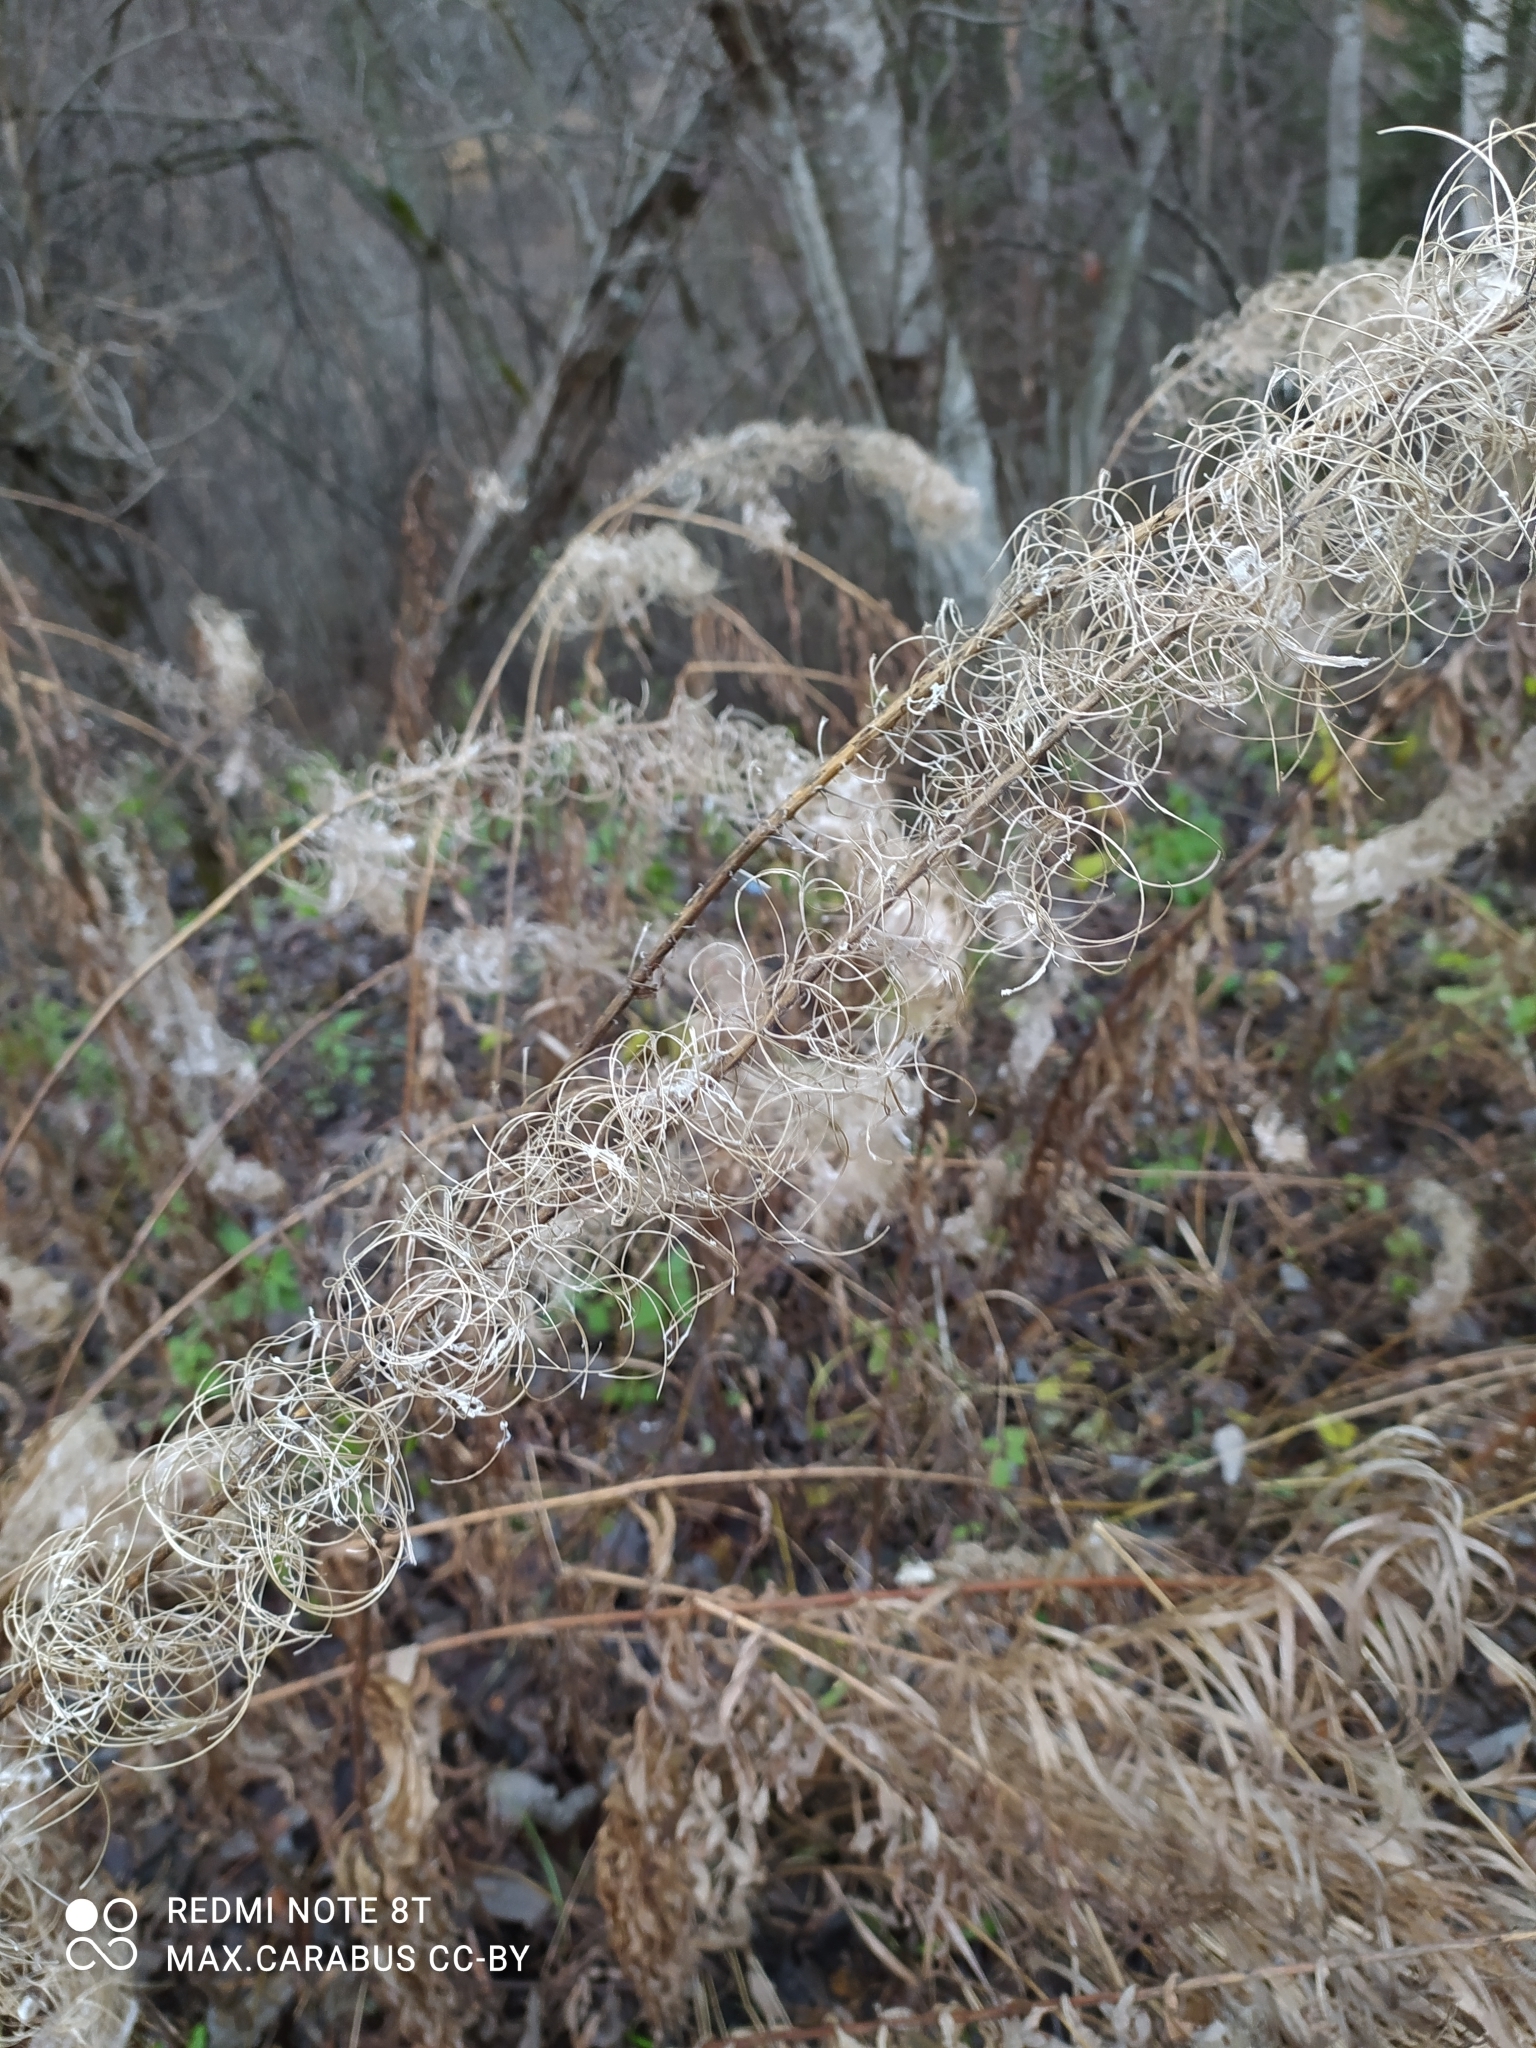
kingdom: Plantae
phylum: Tracheophyta
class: Magnoliopsida
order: Myrtales
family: Onagraceae
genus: Chamaenerion
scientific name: Chamaenerion angustifolium
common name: Fireweed
